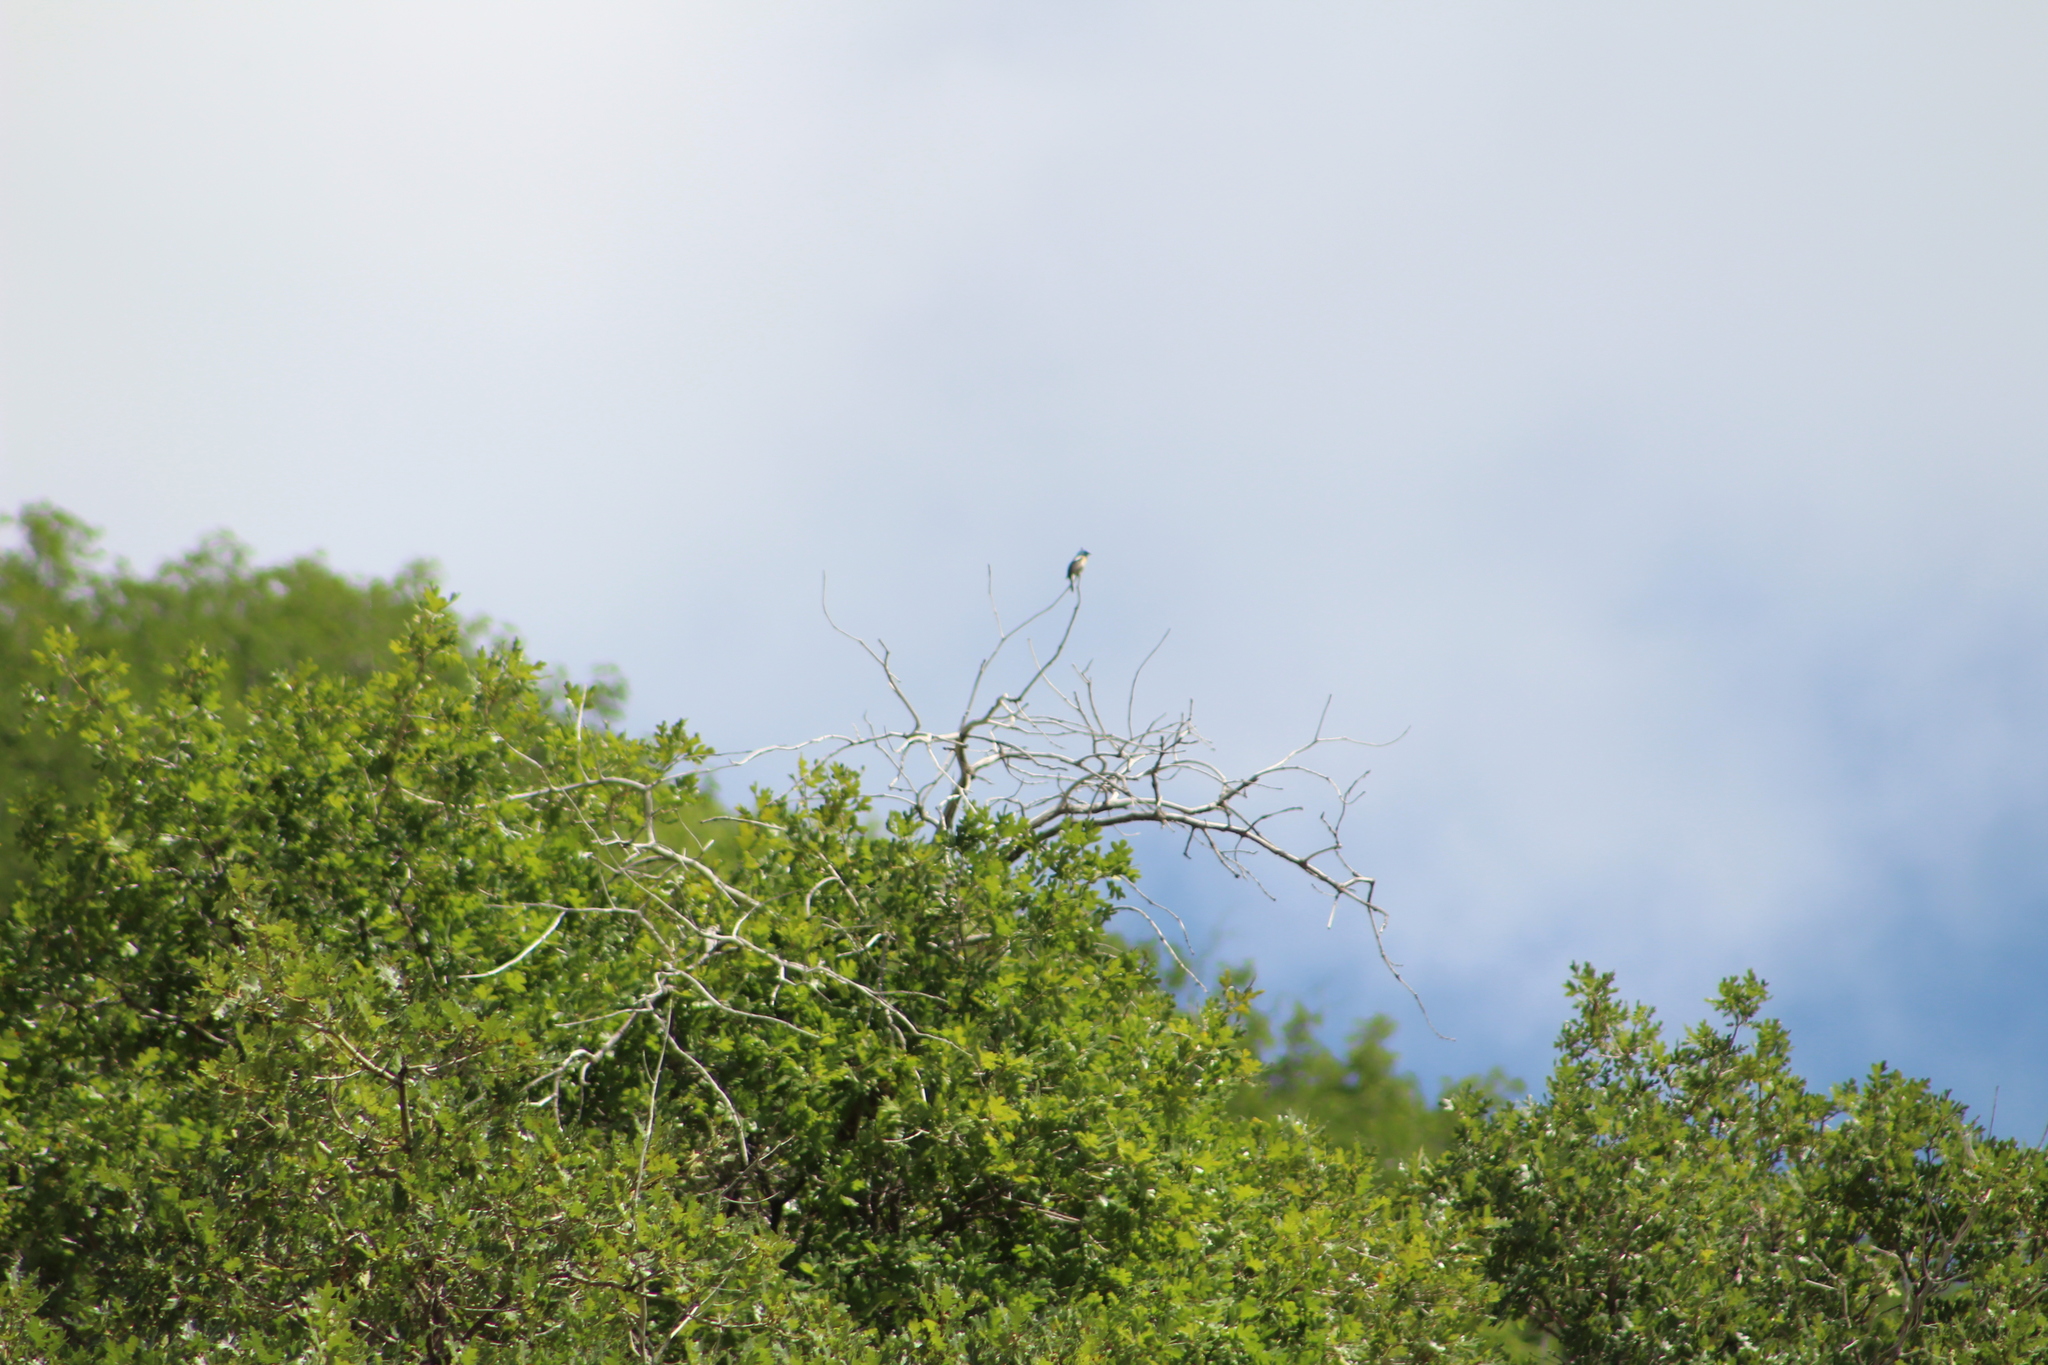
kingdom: Animalia
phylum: Chordata
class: Aves
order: Passeriformes
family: Cardinalidae
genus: Passerina
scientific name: Passerina amoena
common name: Lazuli bunting
